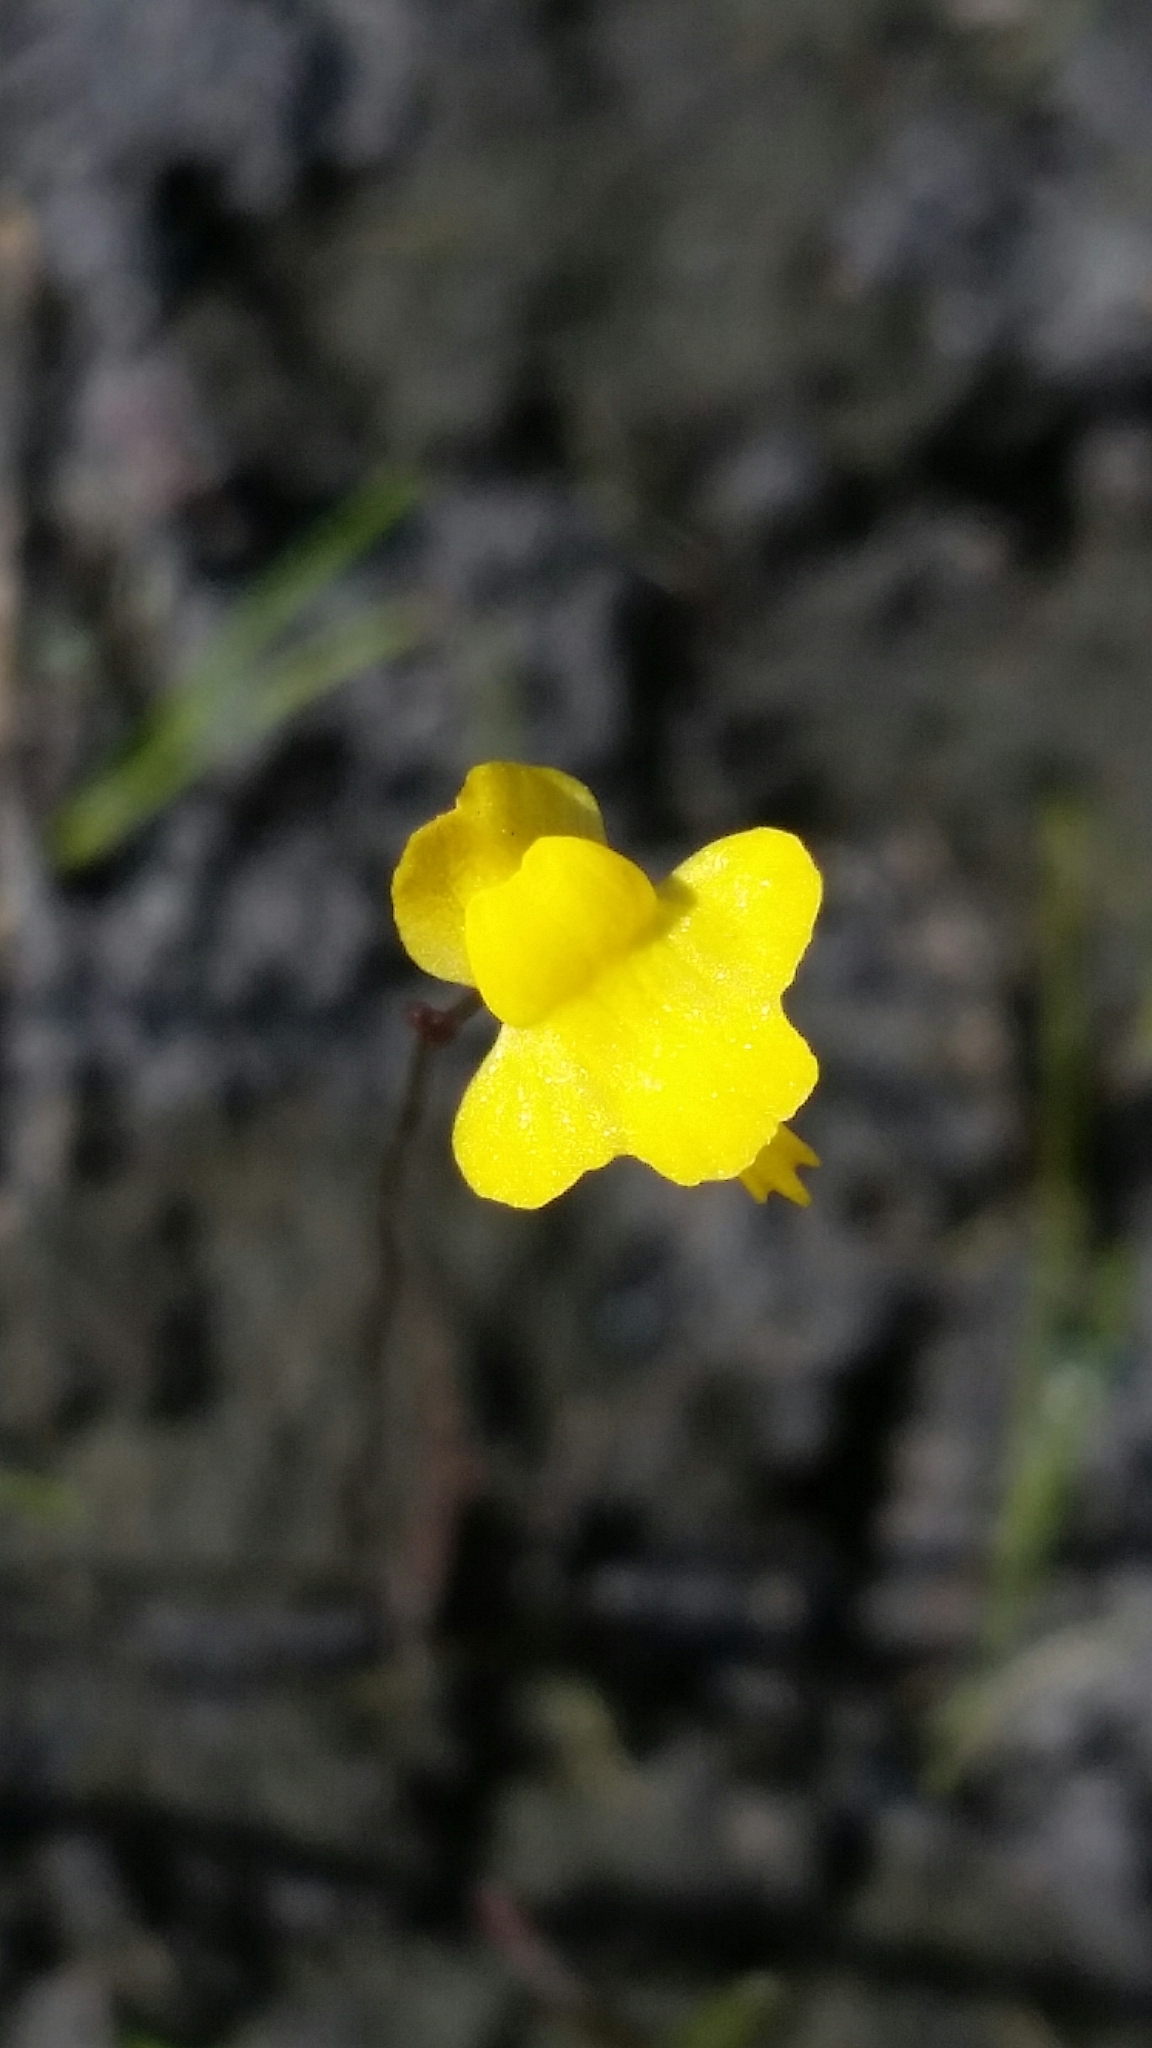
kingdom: Plantae
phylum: Tracheophyta
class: Magnoliopsida
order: Lamiales
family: Lentibulariaceae
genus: Utricularia
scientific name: Utricularia subulata
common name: Tiny bladderwort
